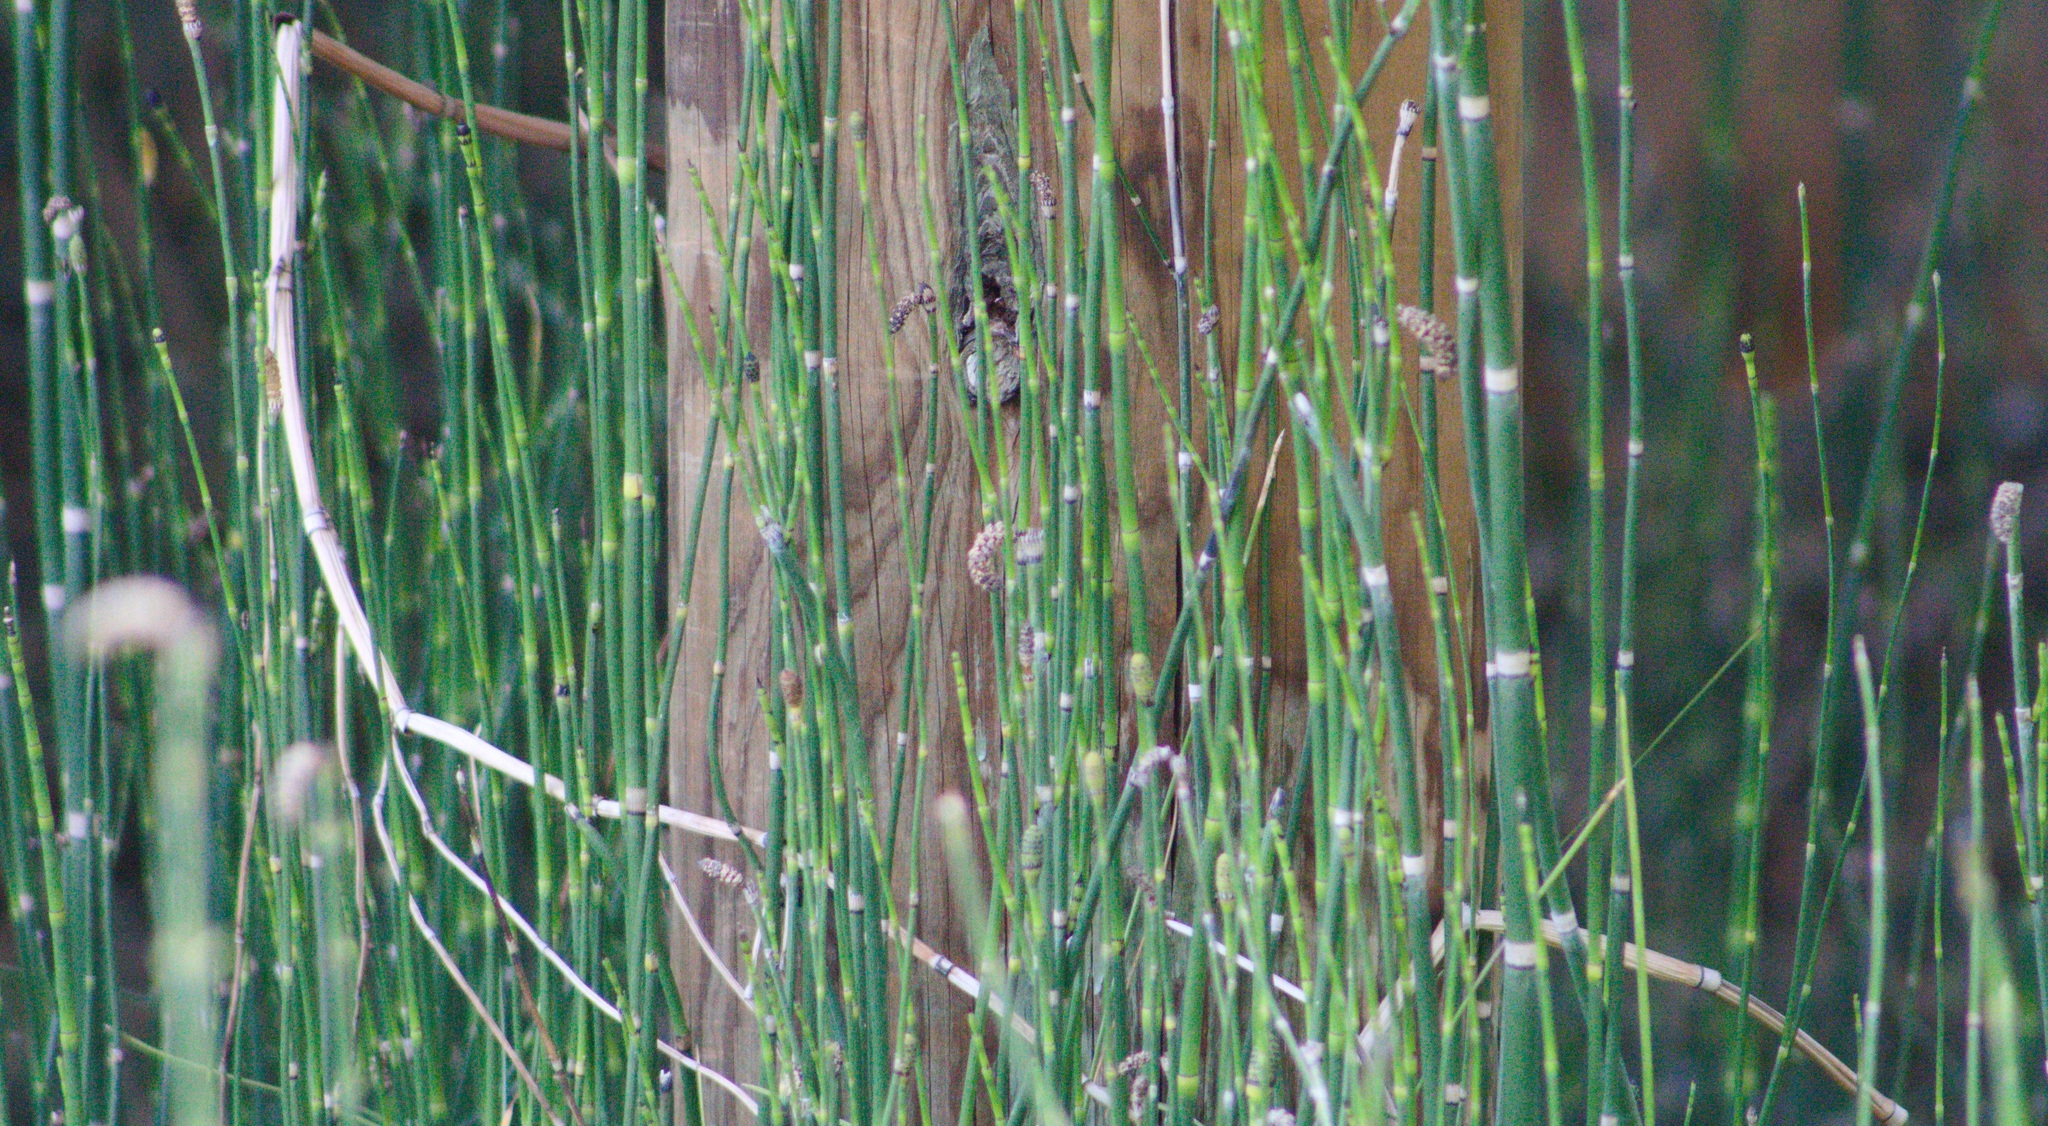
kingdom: Plantae
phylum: Tracheophyta
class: Polypodiopsida
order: Equisetales
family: Equisetaceae
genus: Equisetum
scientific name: Equisetum praealtum
